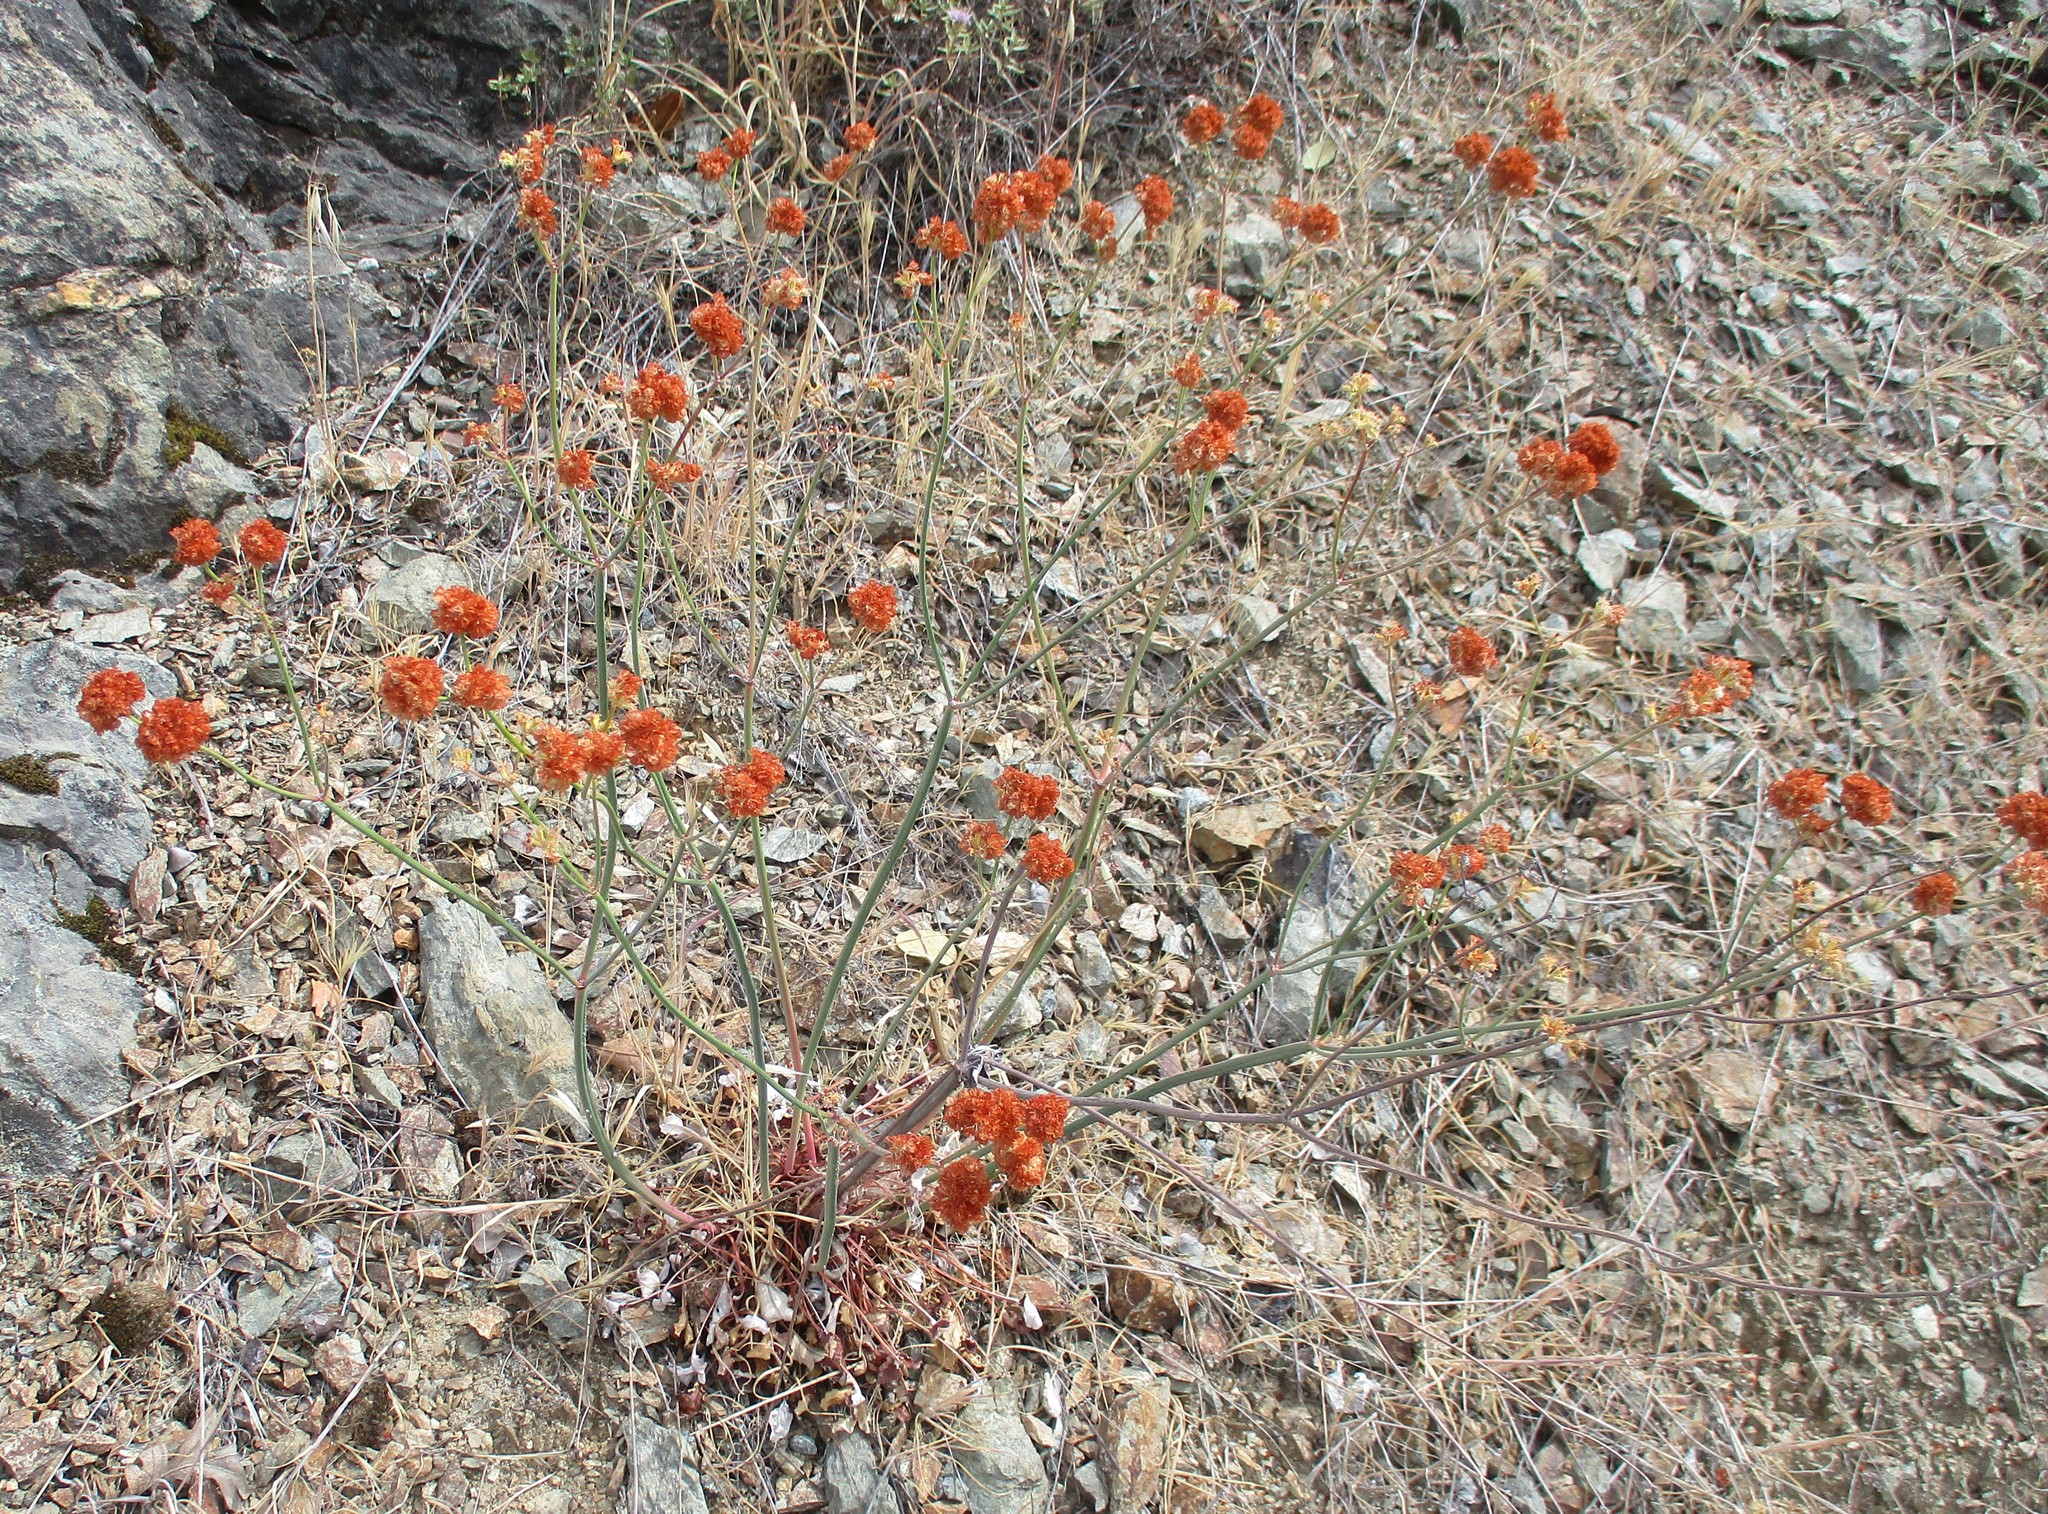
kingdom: Plantae
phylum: Tracheophyta
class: Magnoliopsida
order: Caryophyllales
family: Polygonaceae
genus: Eriogonum
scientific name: Eriogonum nudum
